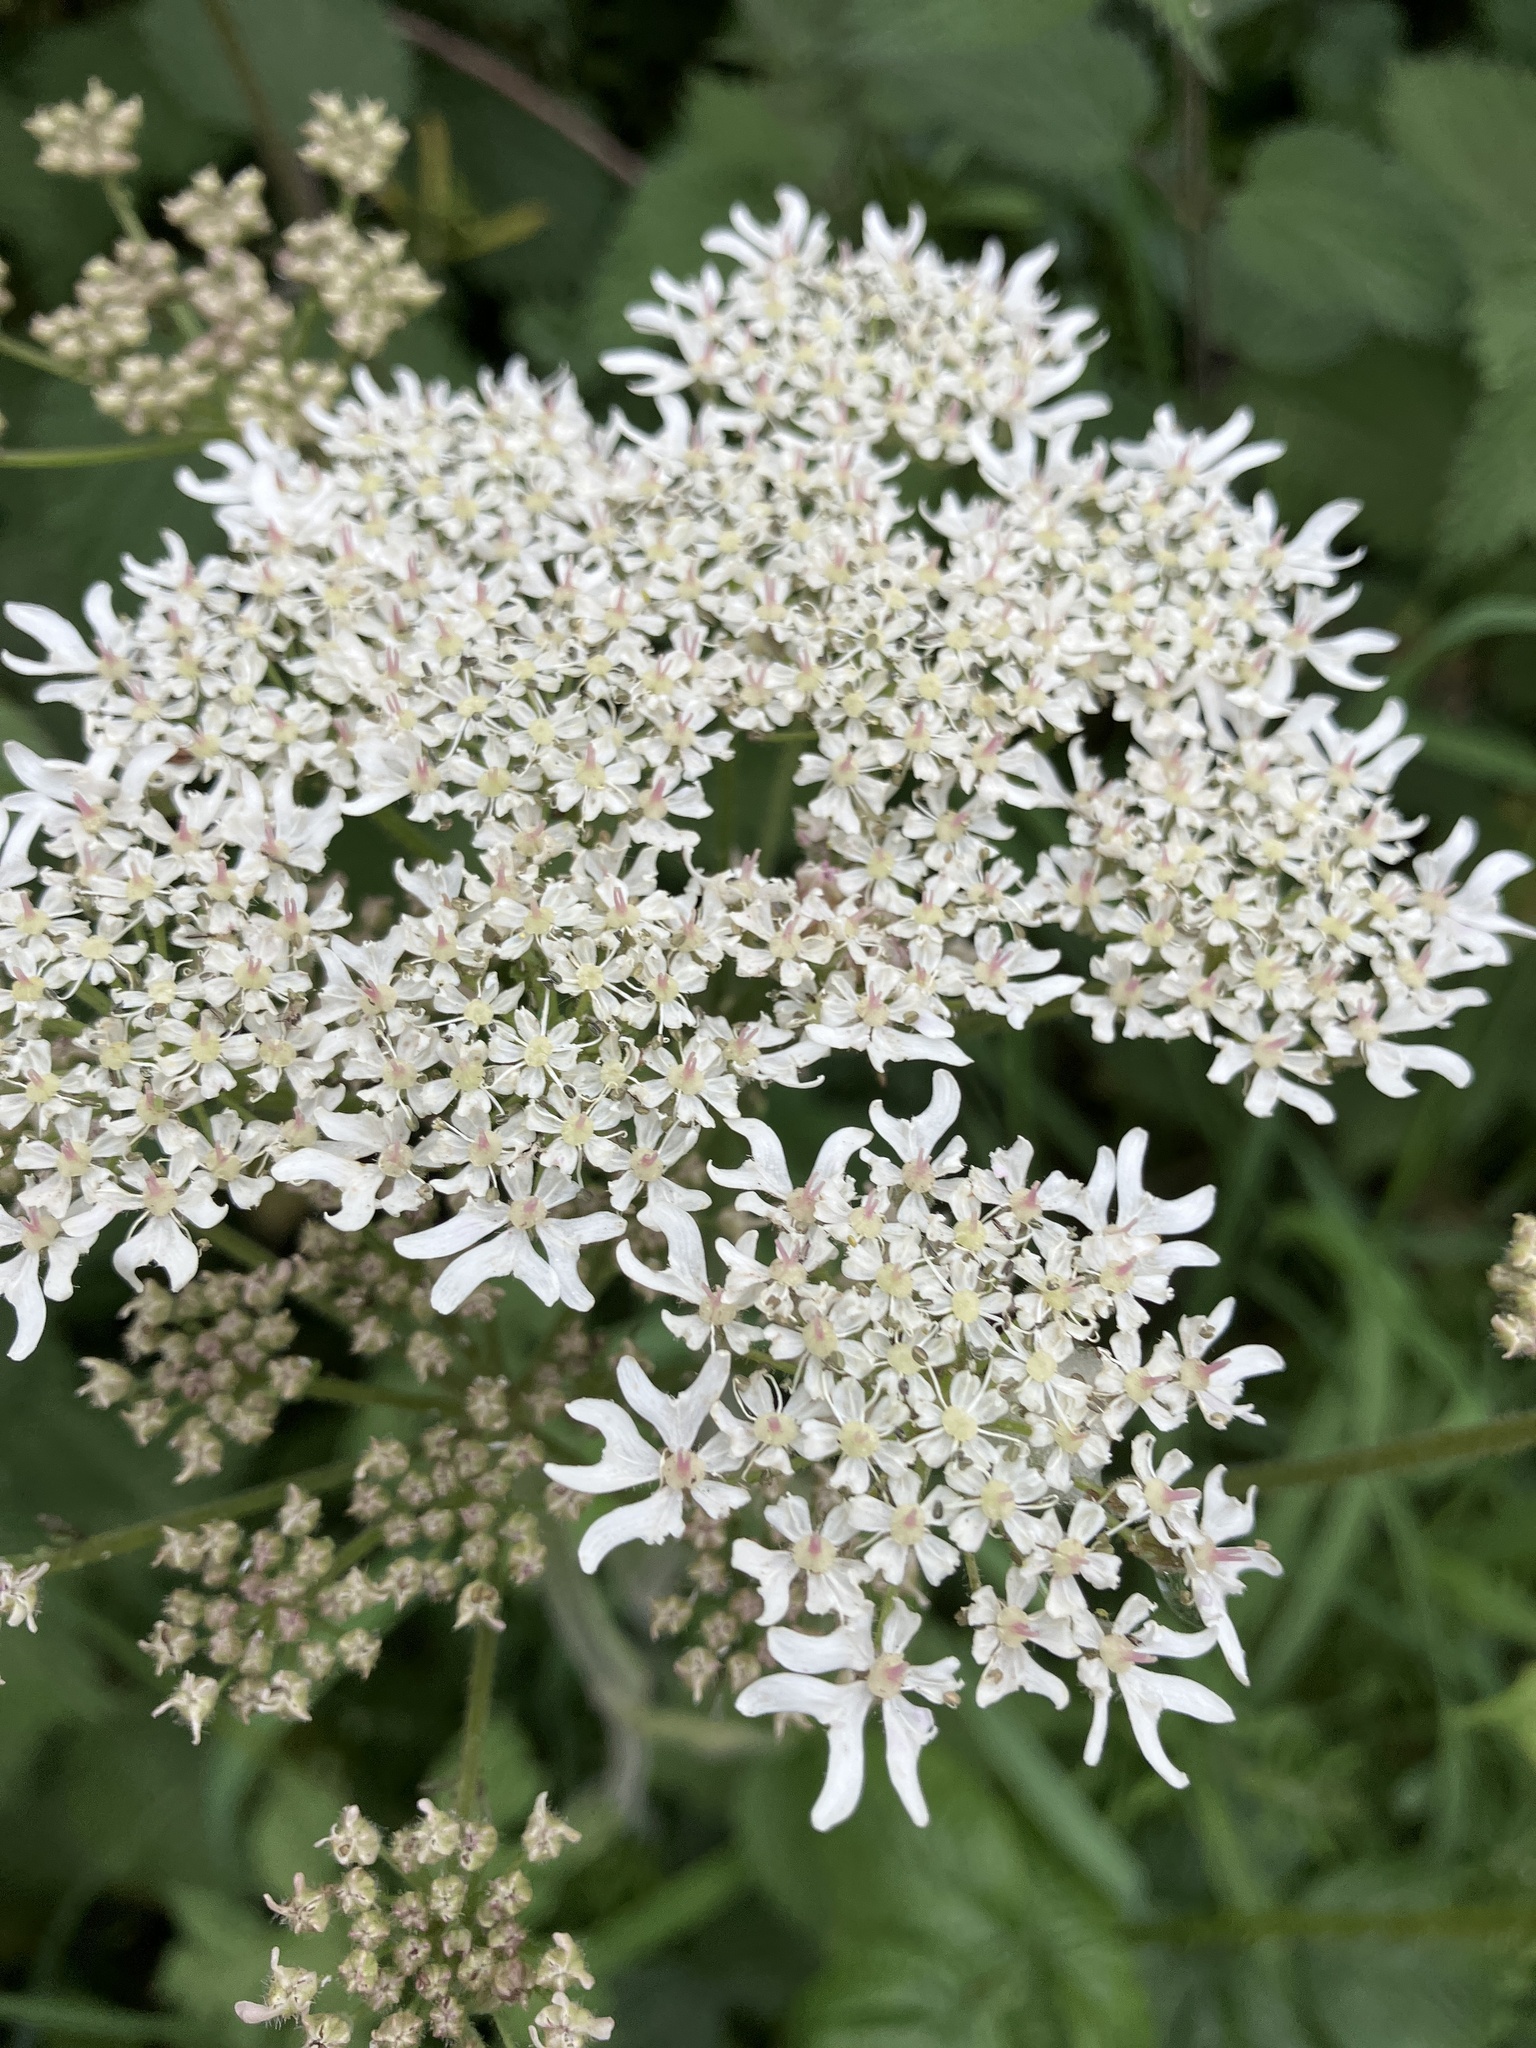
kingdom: Plantae
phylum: Tracheophyta
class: Magnoliopsida
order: Apiales
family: Apiaceae
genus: Heracleum
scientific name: Heracleum sphondylium
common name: Hogweed
